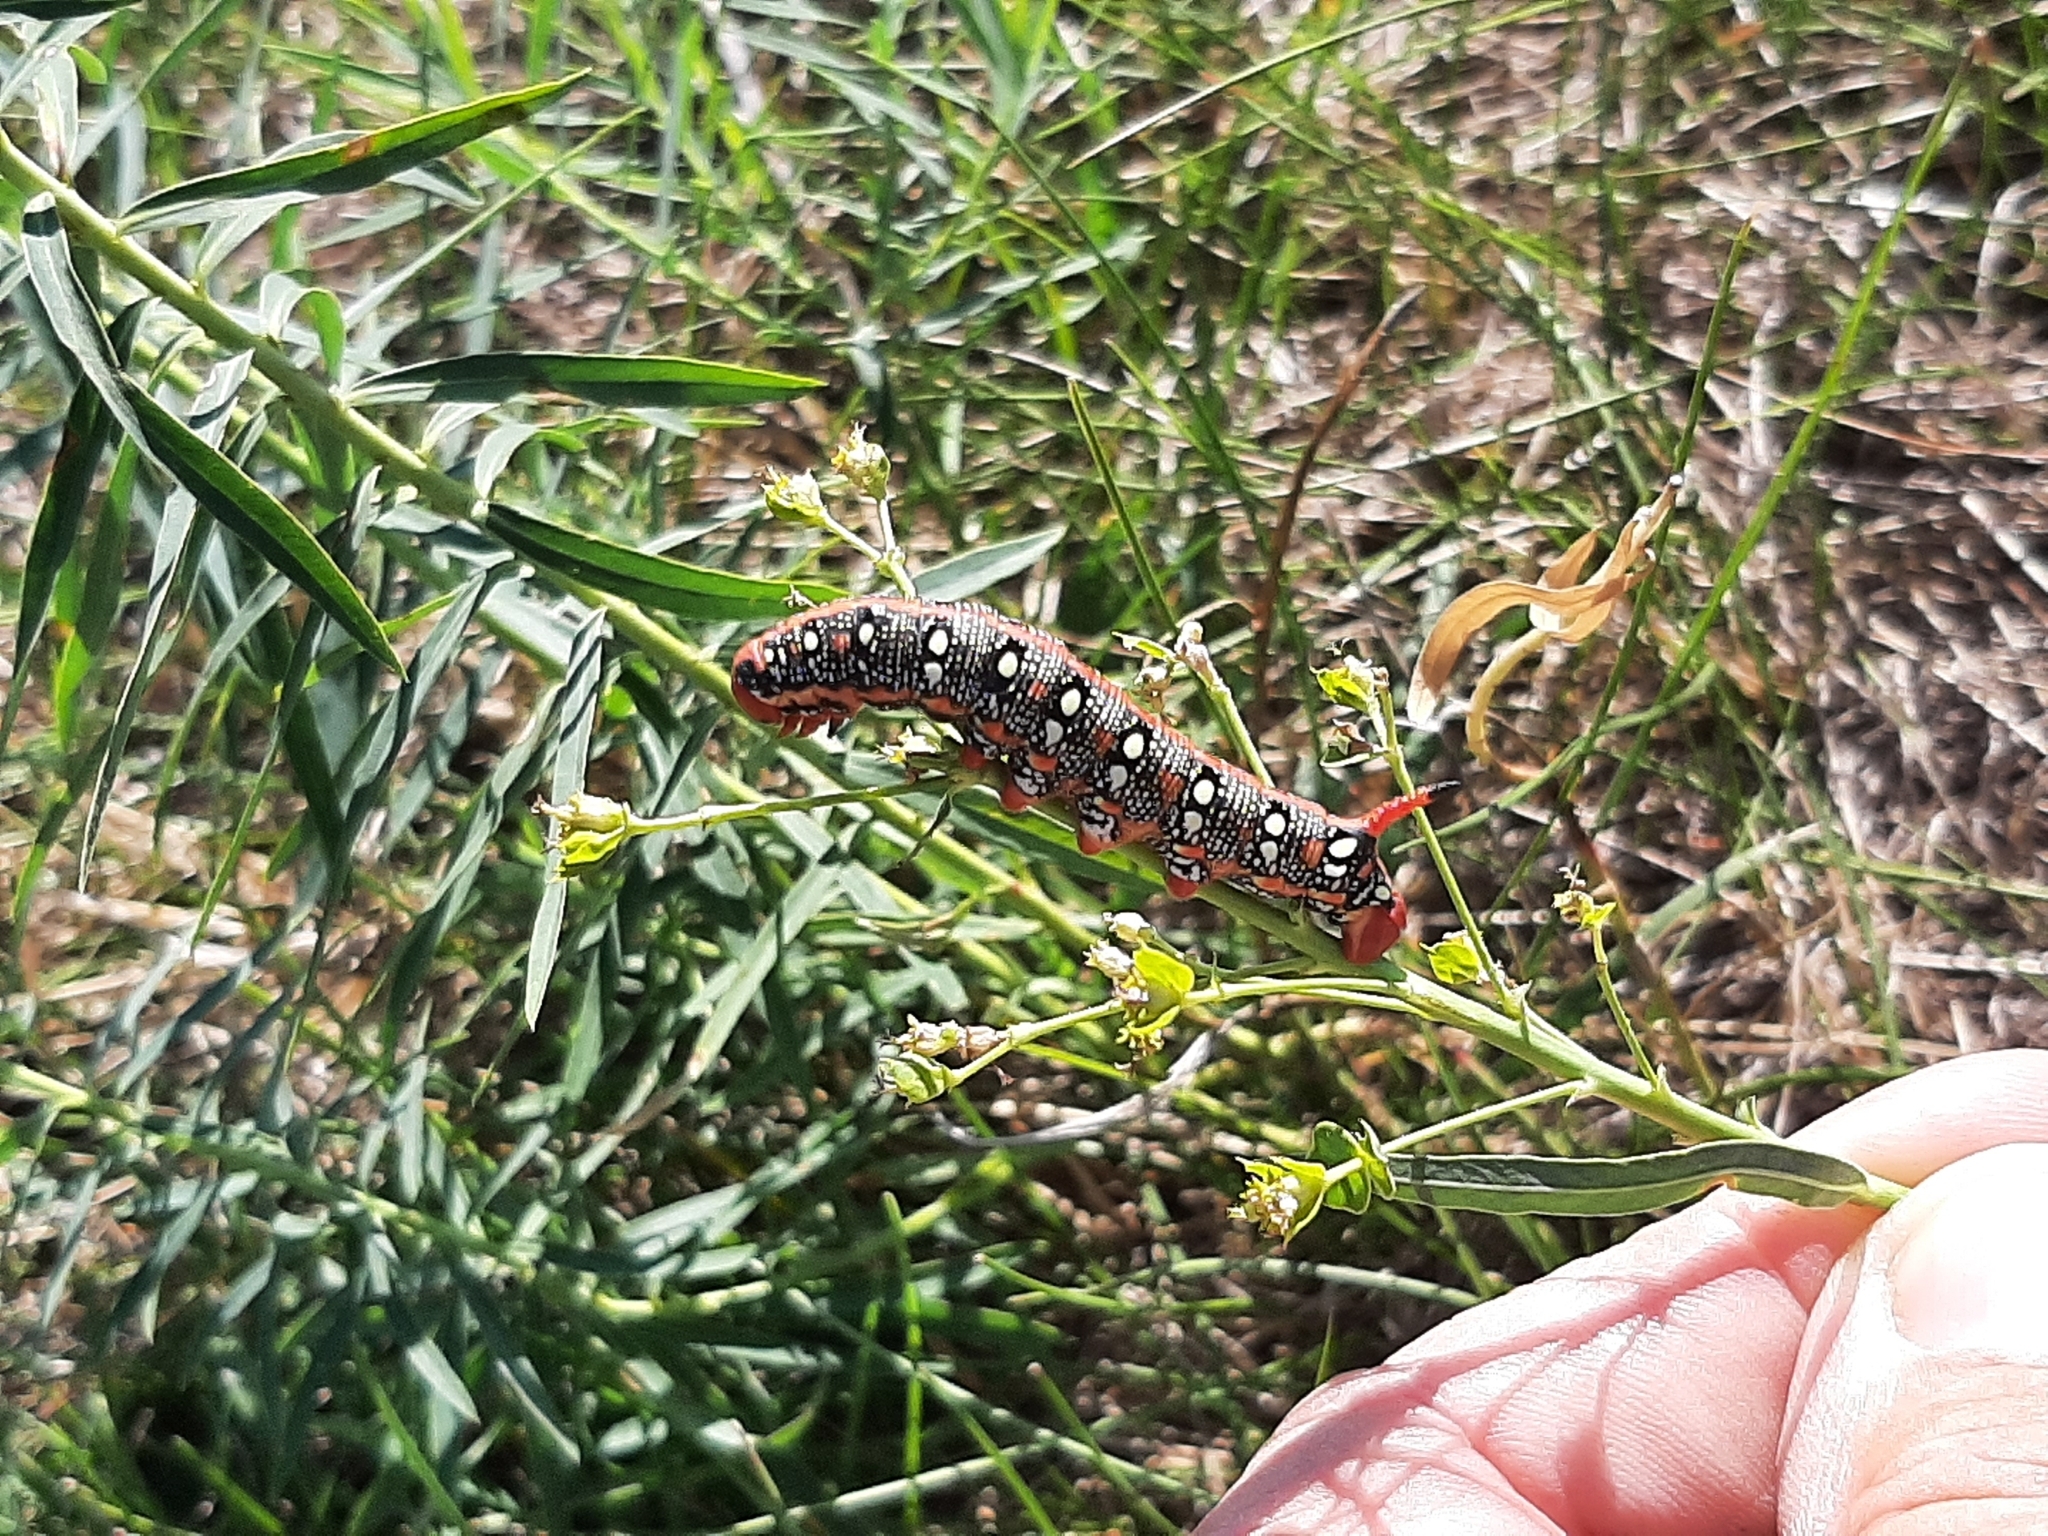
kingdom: Animalia
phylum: Arthropoda
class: Insecta
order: Lepidoptera
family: Sphingidae
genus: Hyles
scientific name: Hyles euphorbiae
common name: Spurge hawk-moth
